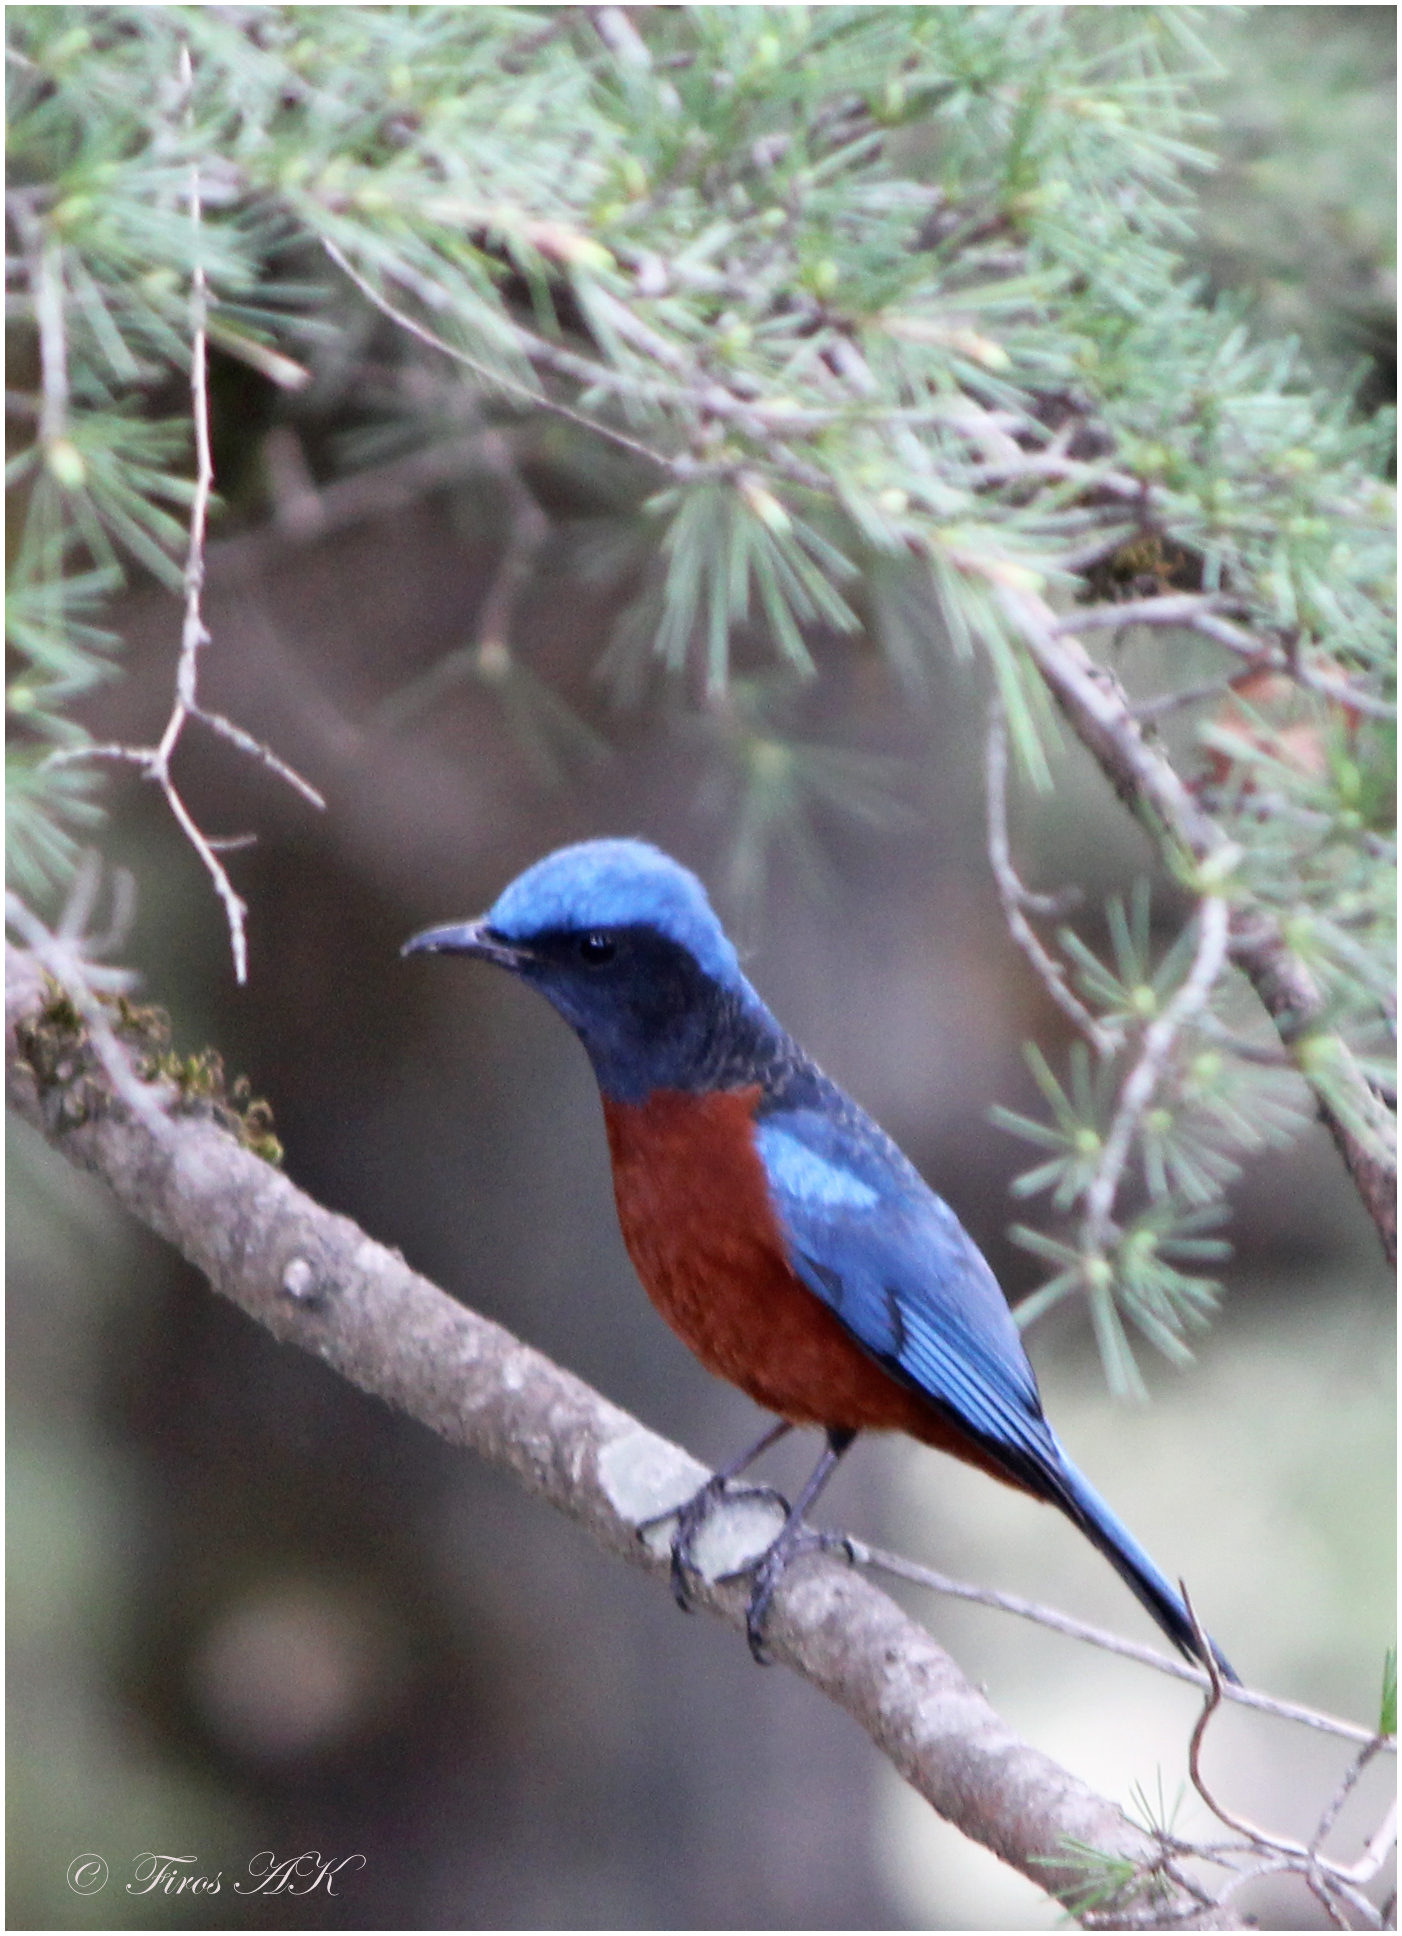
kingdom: Animalia
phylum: Chordata
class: Aves
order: Passeriformes
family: Muscicapidae
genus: Monticola
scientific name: Monticola rufiventris
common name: Chestnut-bellied rock thrush
